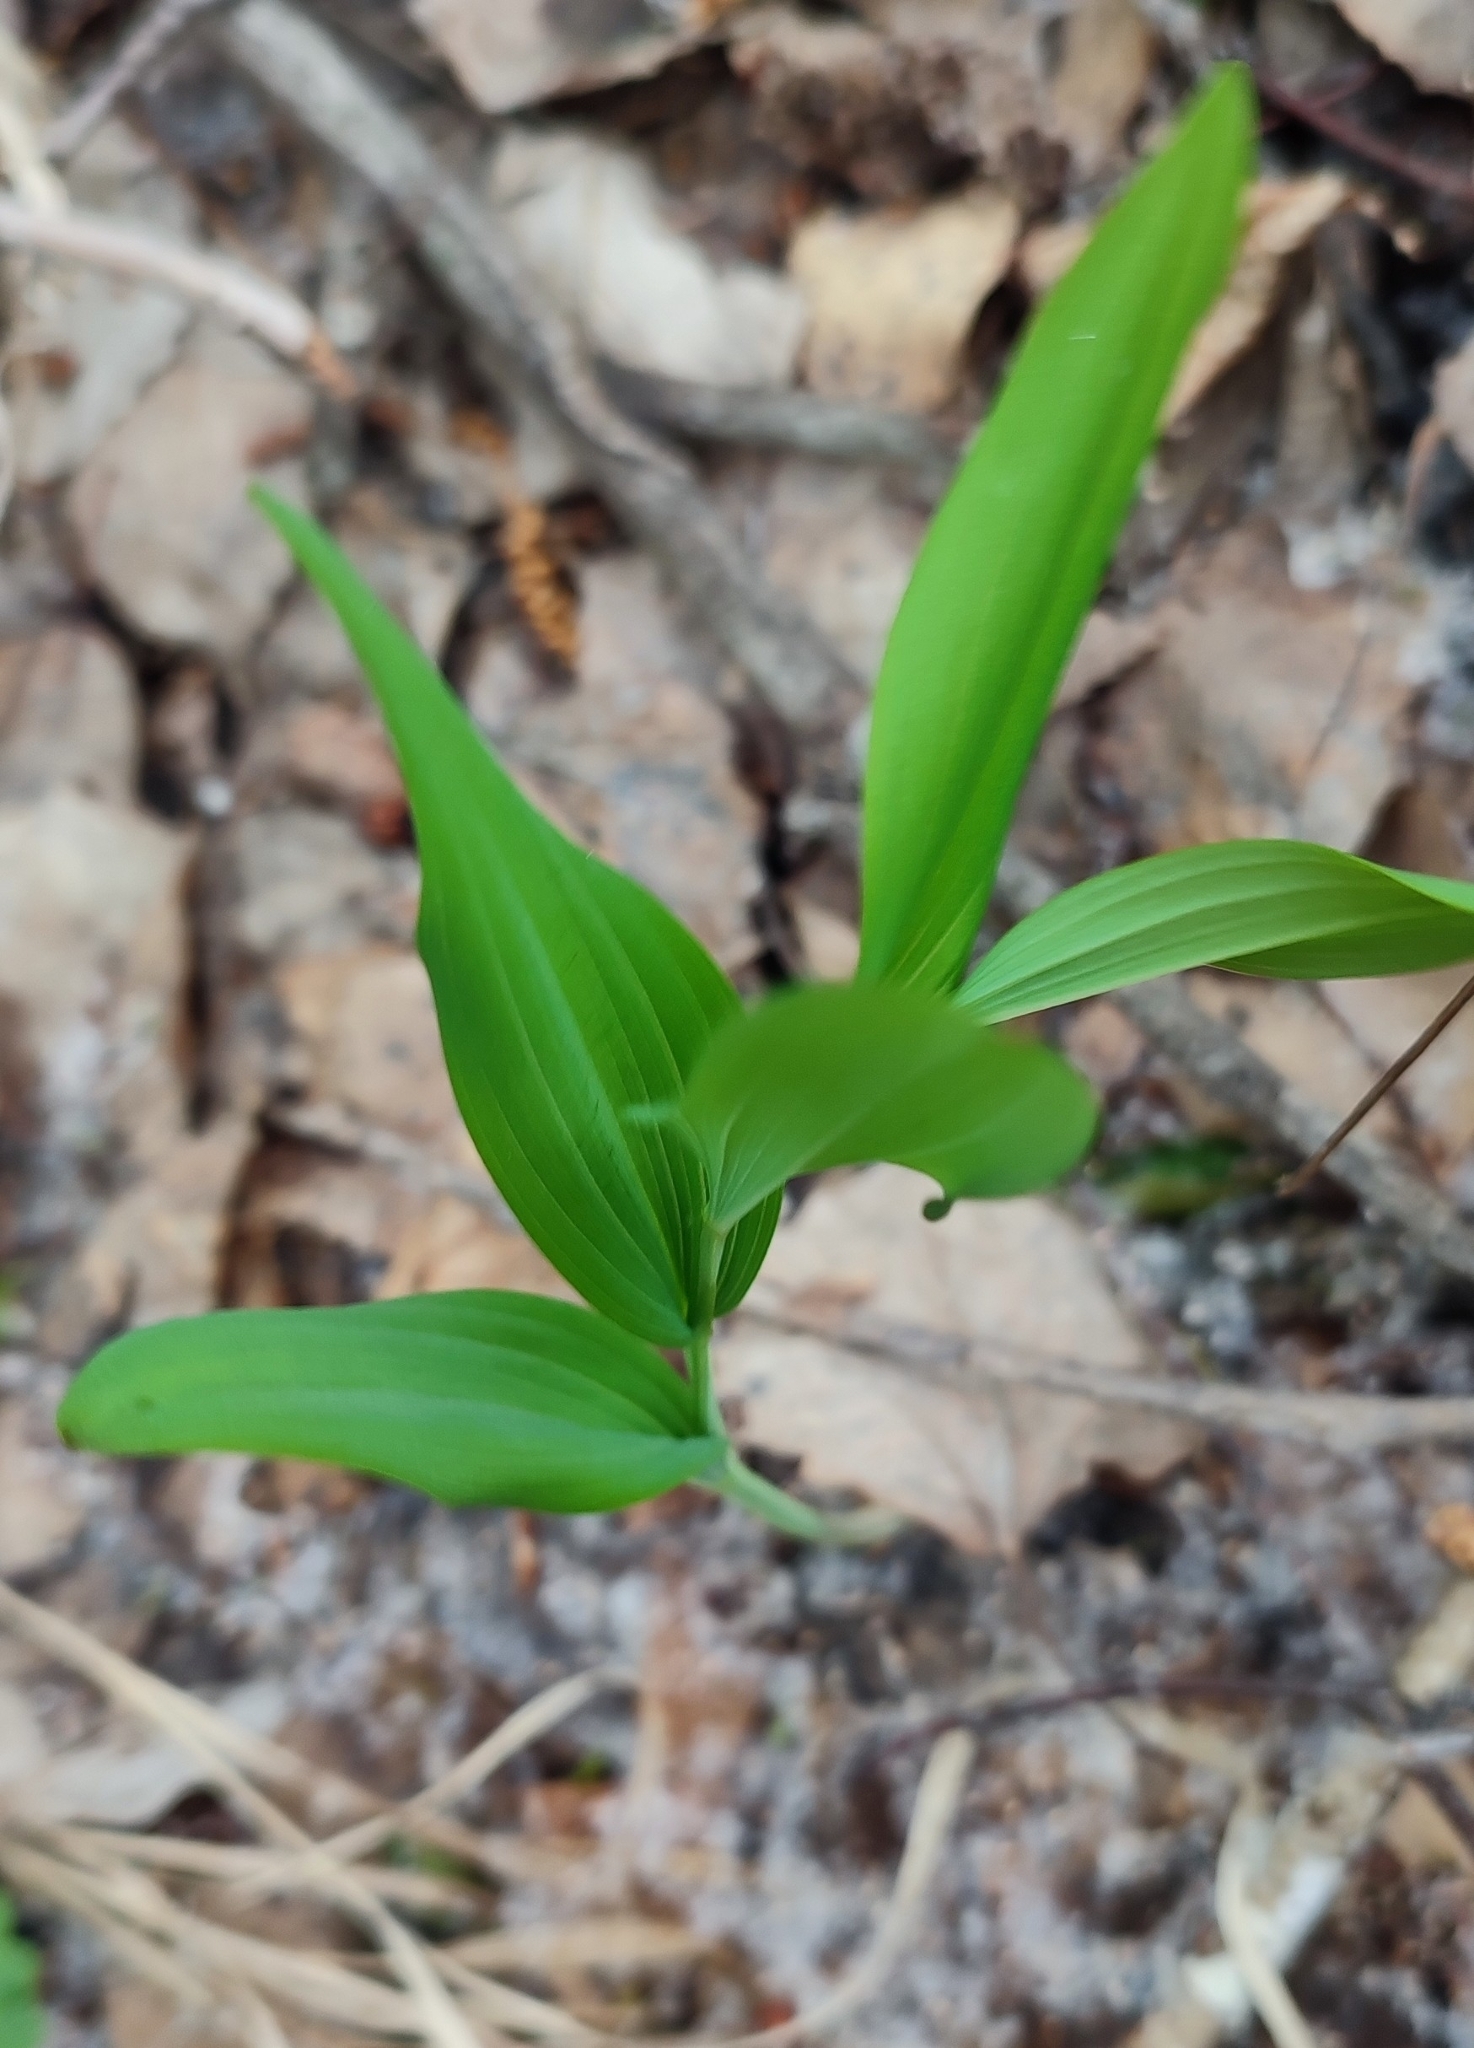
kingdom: Plantae
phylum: Tracheophyta
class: Liliopsida
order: Asparagales
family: Asparagaceae
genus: Polygonatum
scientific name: Polygonatum odoratum
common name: Angular solomon's-seal
